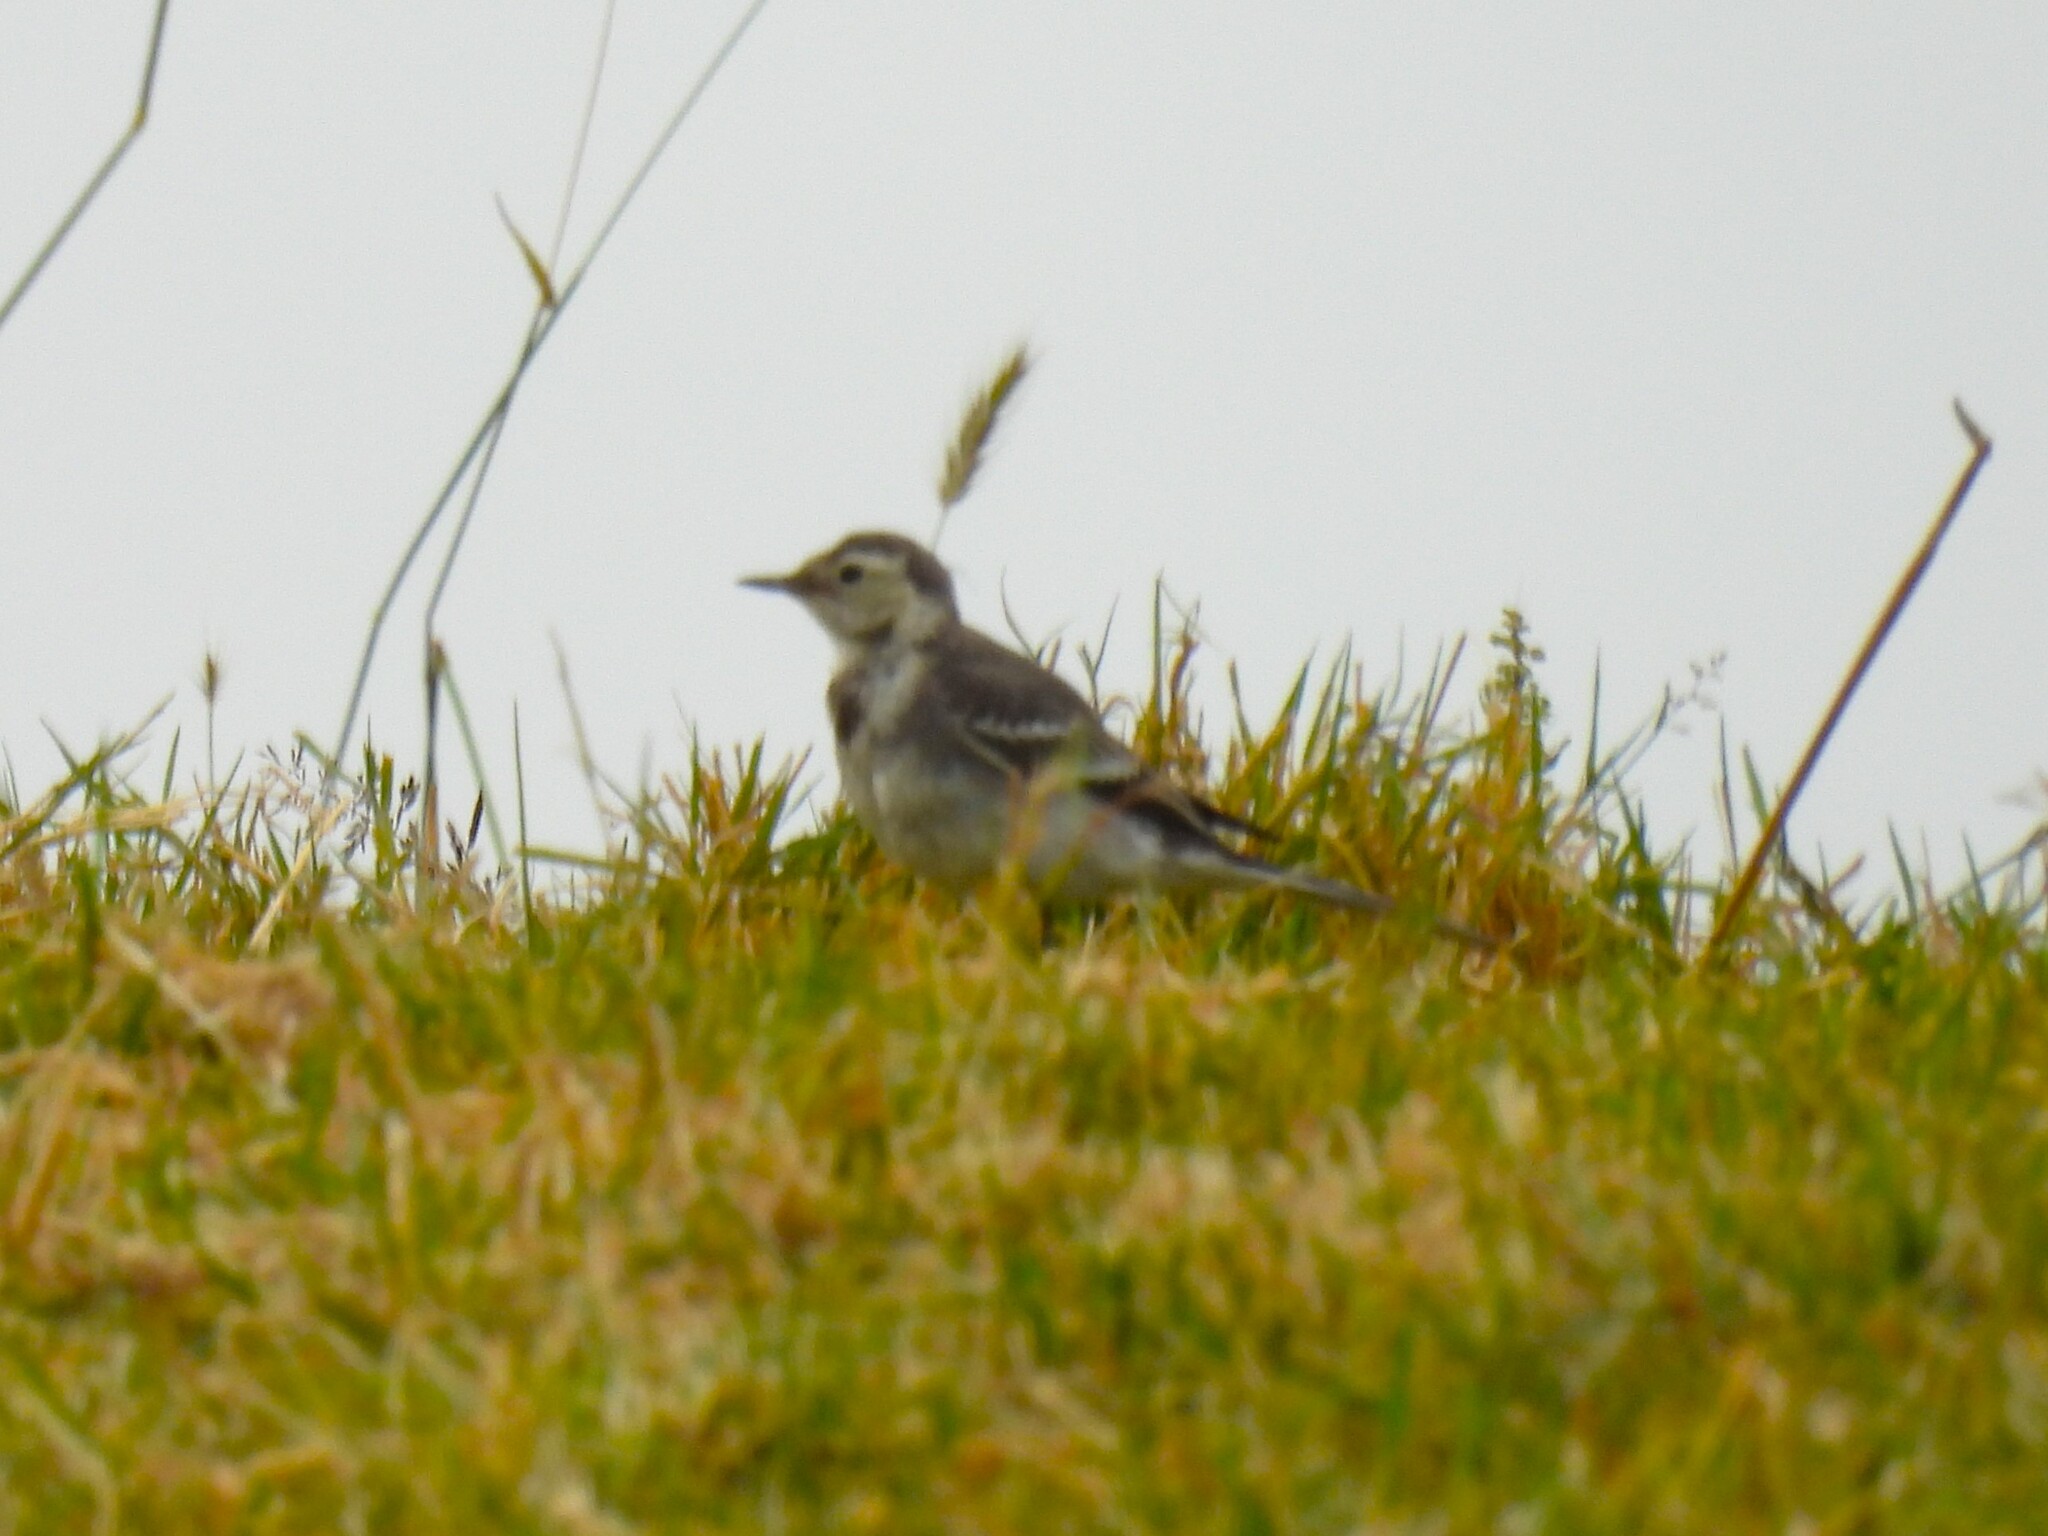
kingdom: Animalia
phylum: Chordata
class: Aves
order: Passeriformes
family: Motacillidae
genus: Motacilla
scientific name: Motacilla alba
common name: White wagtail
